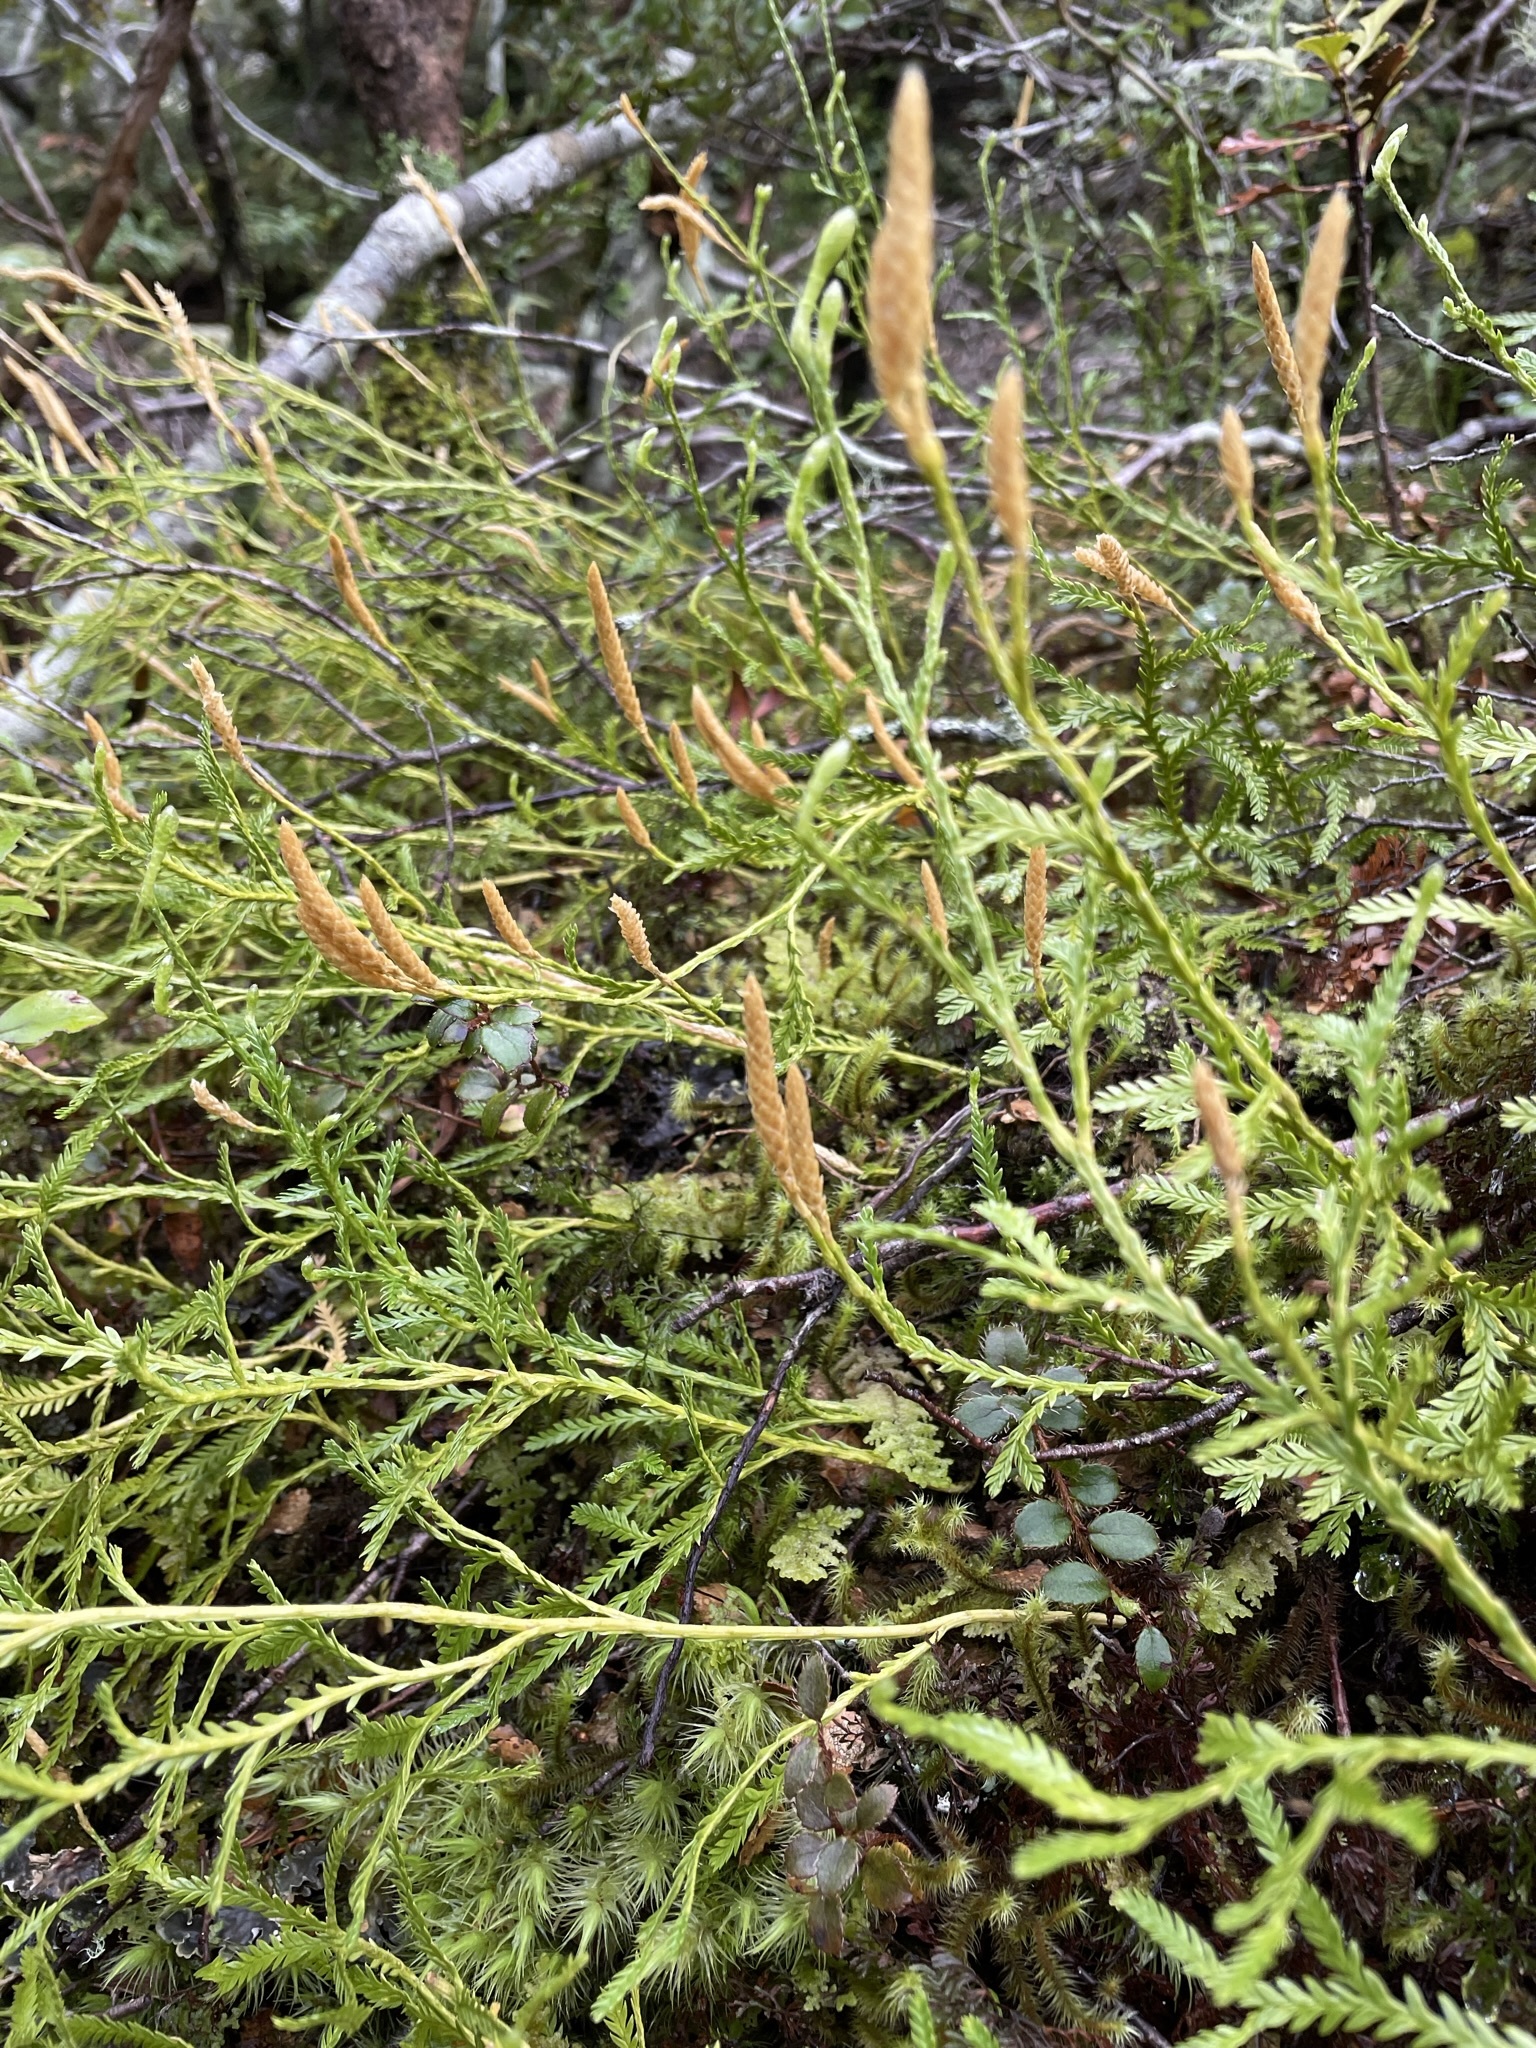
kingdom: Plantae
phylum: Tracheophyta
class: Lycopodiopsida
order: Lycopodiales
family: Lycopodiaceae
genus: Diphasium
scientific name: Diphasium scariosum
